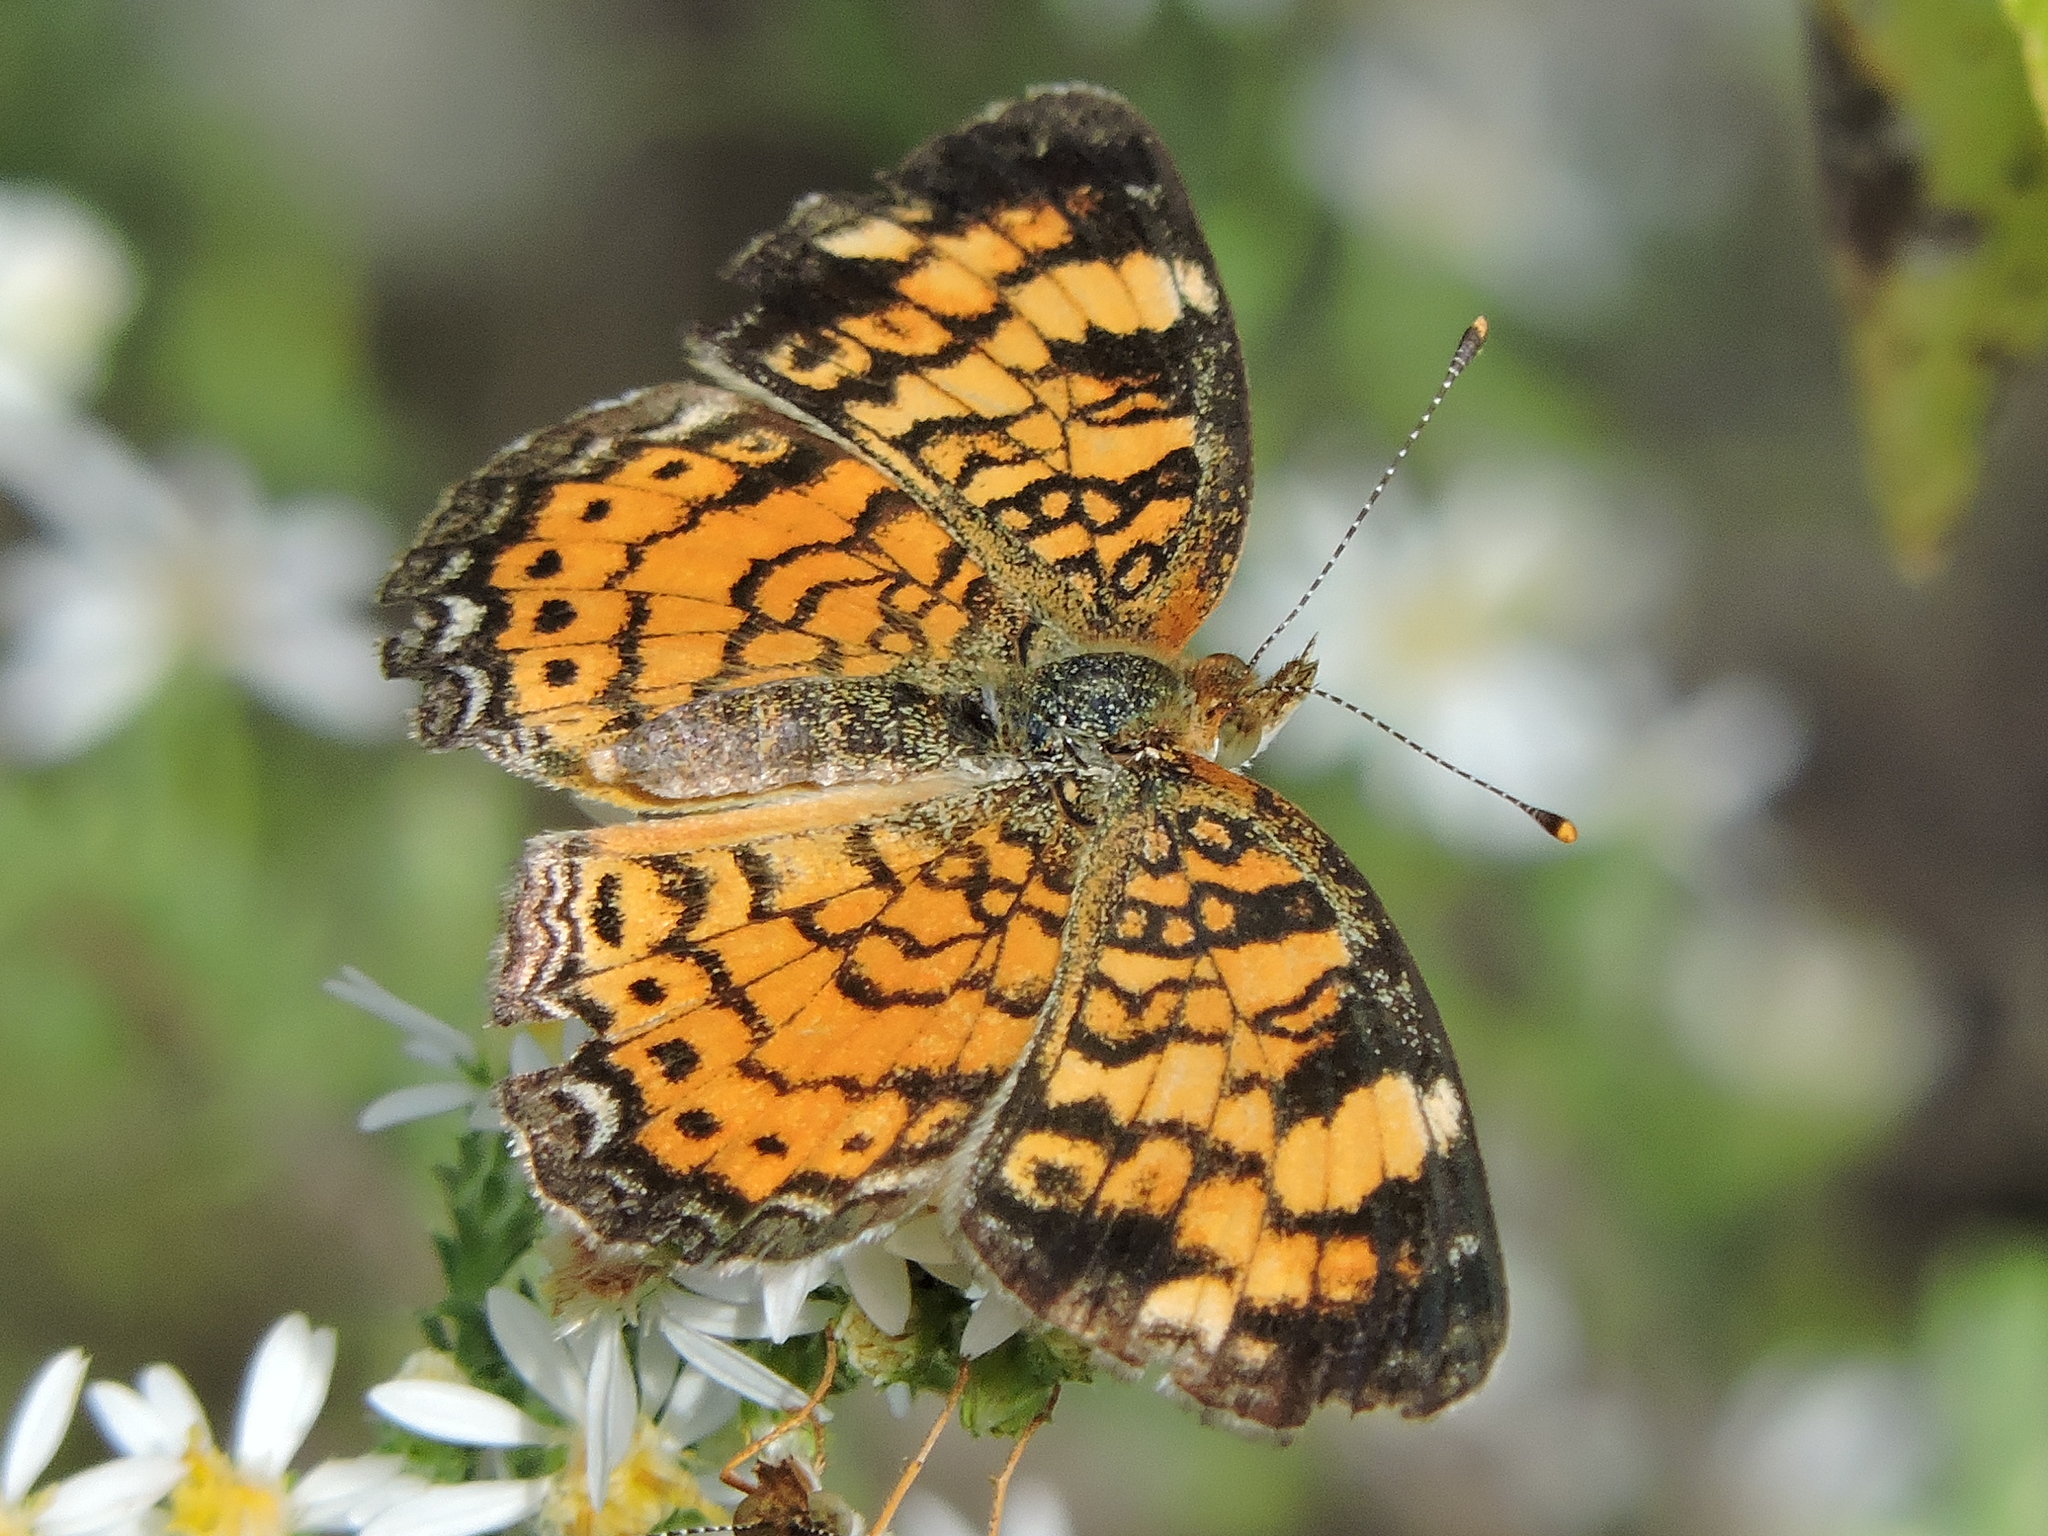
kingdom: Animalia
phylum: Arthropoda
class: Insecta
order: Lepidoptera
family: Nymphalidae
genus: Phyciodes
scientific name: Phyciodes tharos
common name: Pearl crescent
